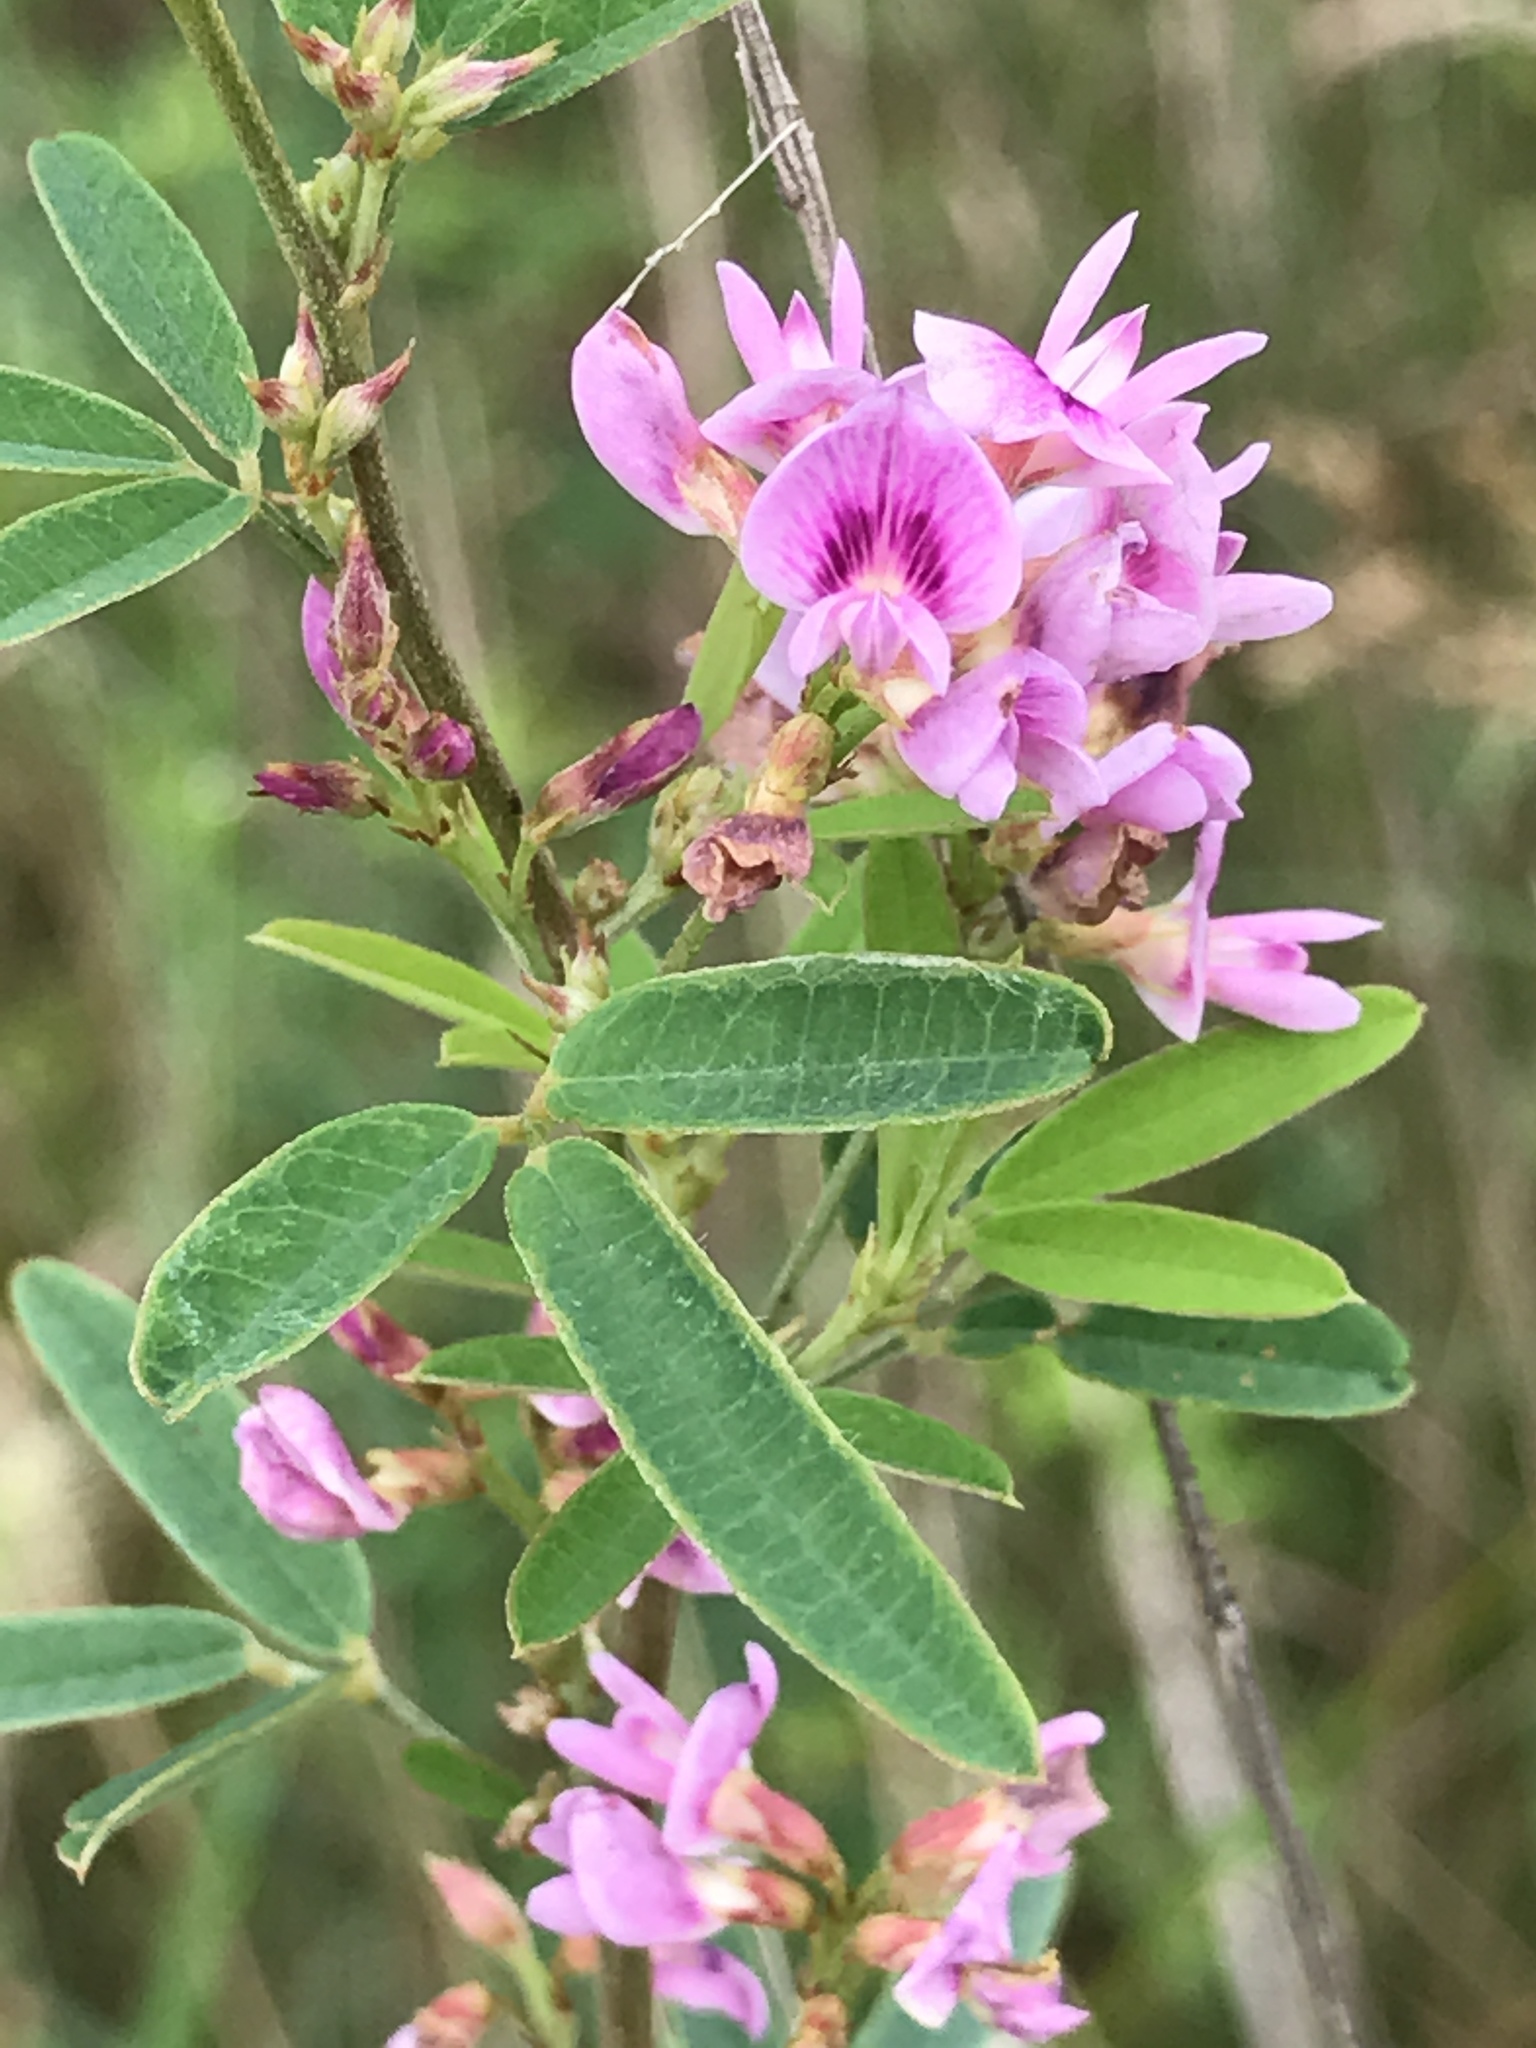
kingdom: Plantae
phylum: Tracheophyta
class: Magnoliopsida
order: Fabales
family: Fabaceae
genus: Lespedeza
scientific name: Lespedeza virginica
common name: Slender bush-clover
